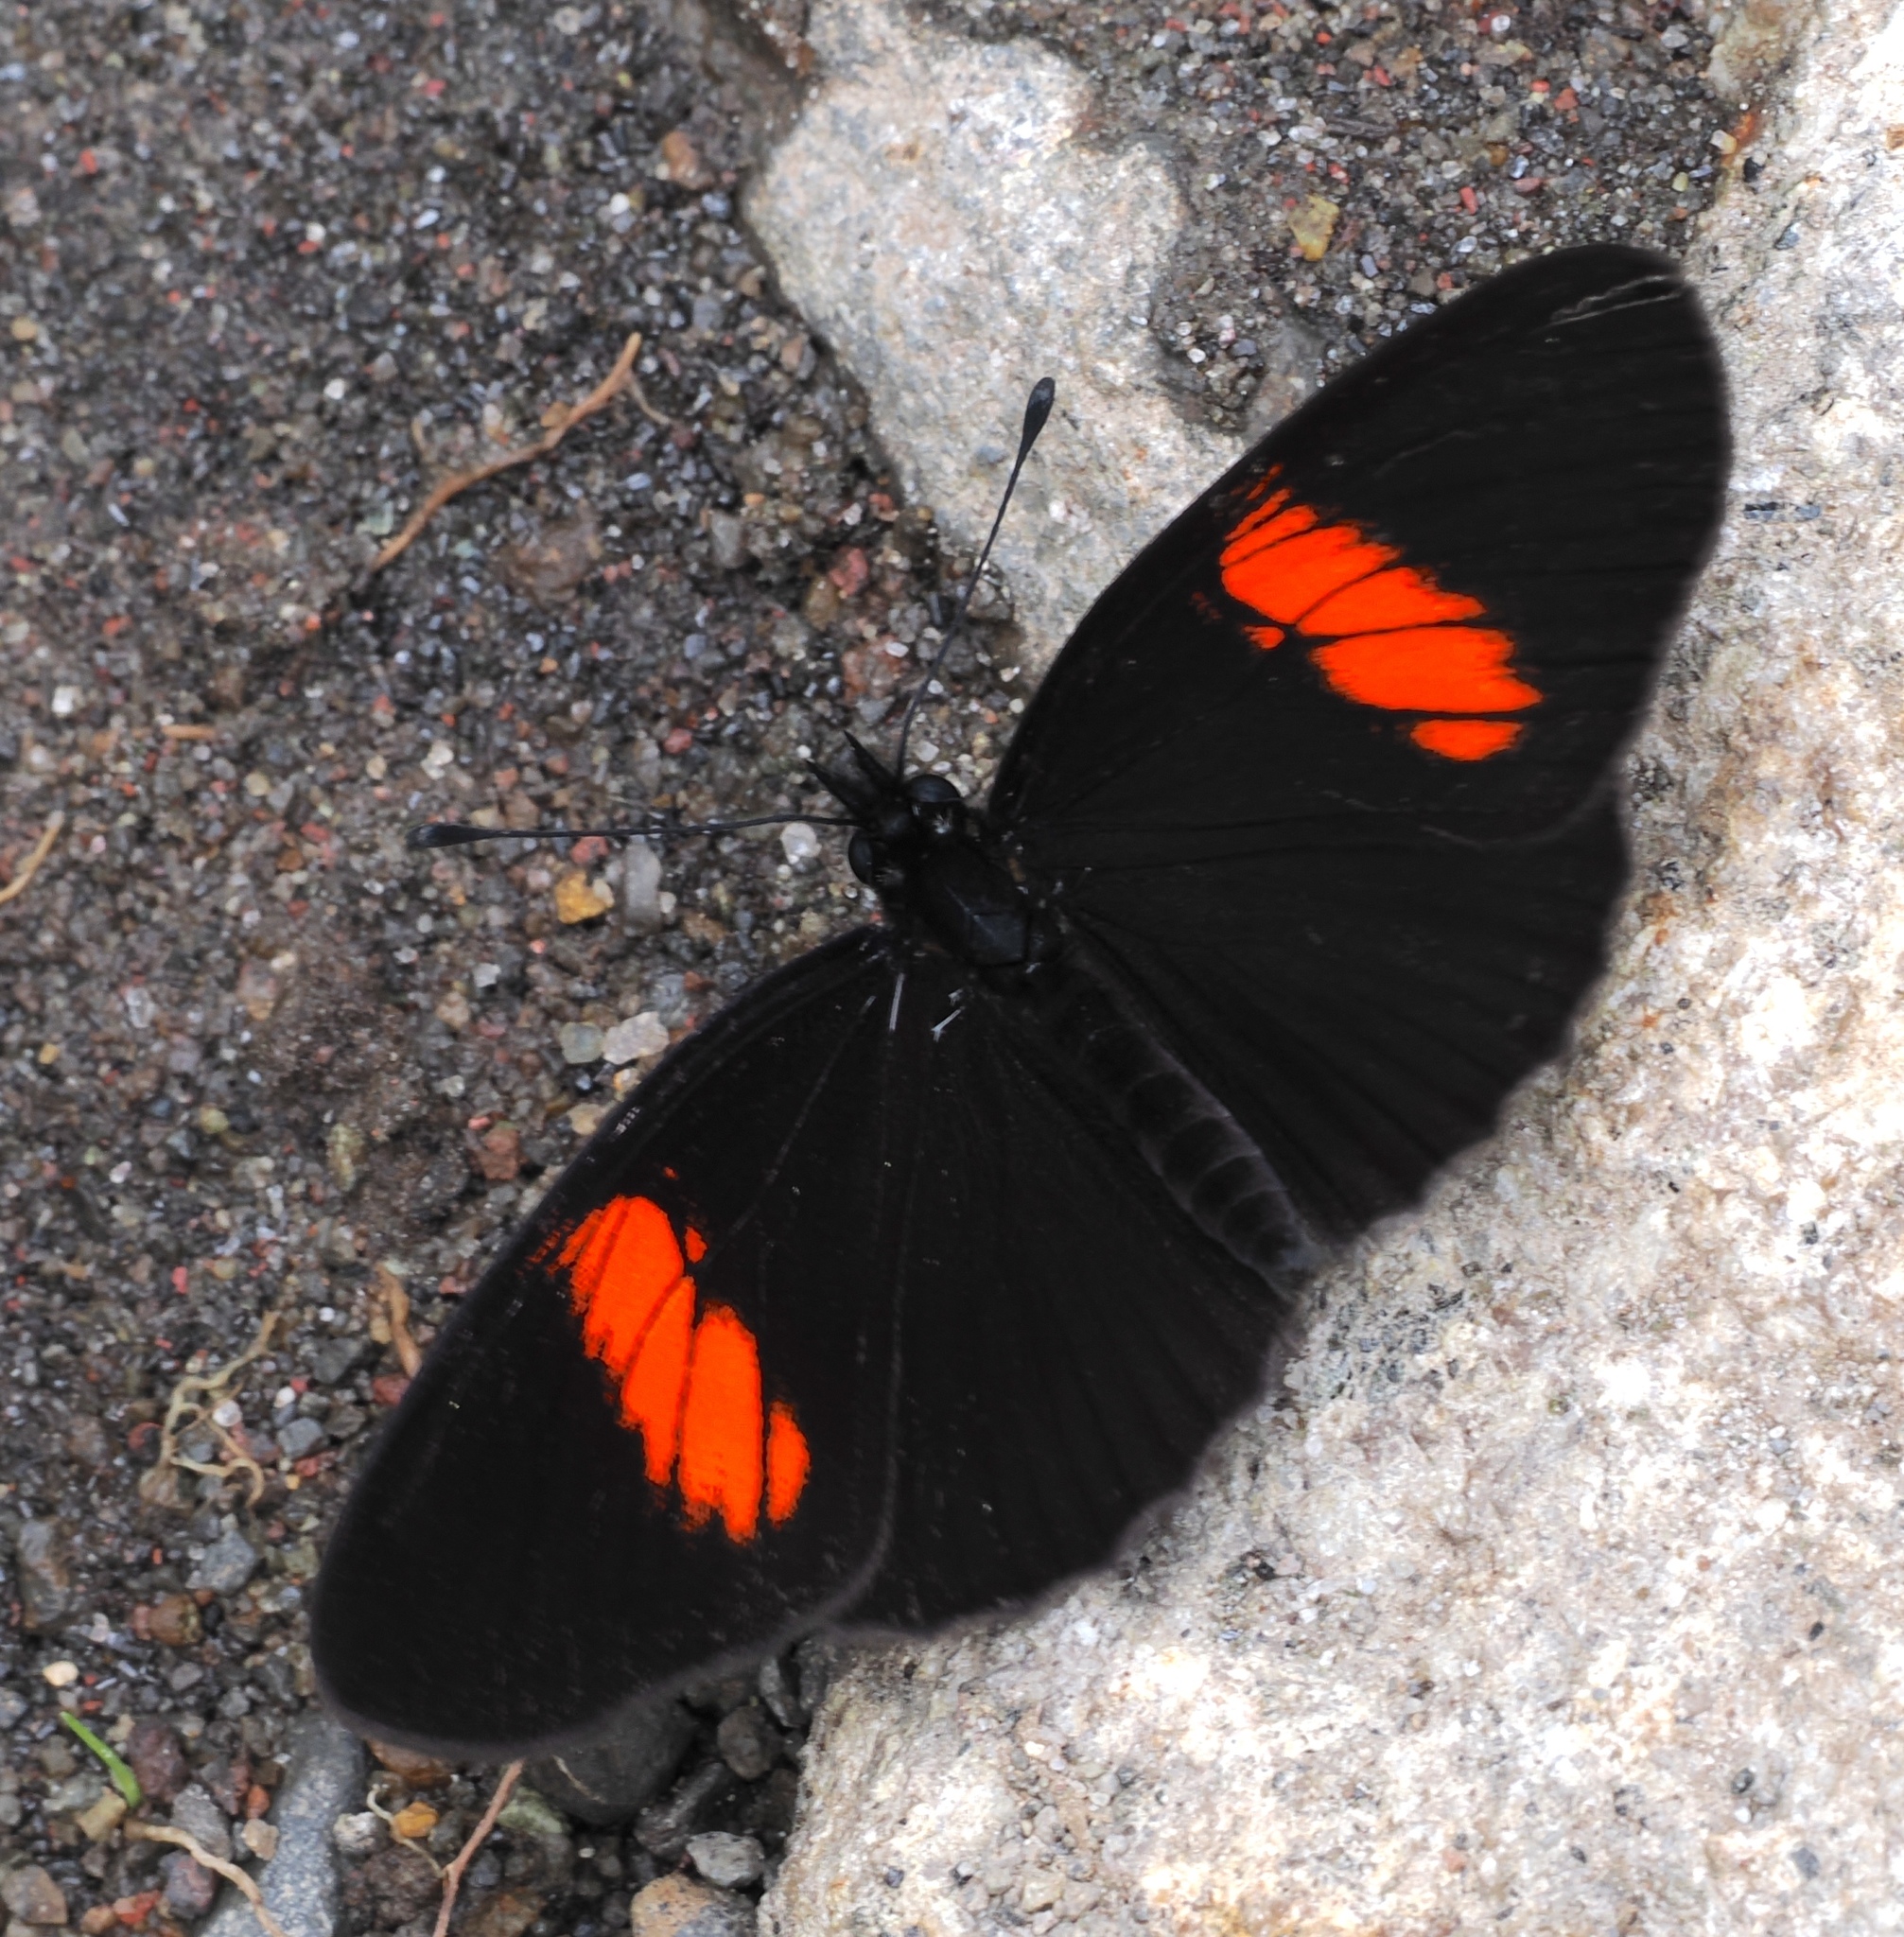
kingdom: Animalia
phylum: Arthropoda
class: Insecta
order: Lepidoptera
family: Nymphalidae
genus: Castilia
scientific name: Castilia castilla
